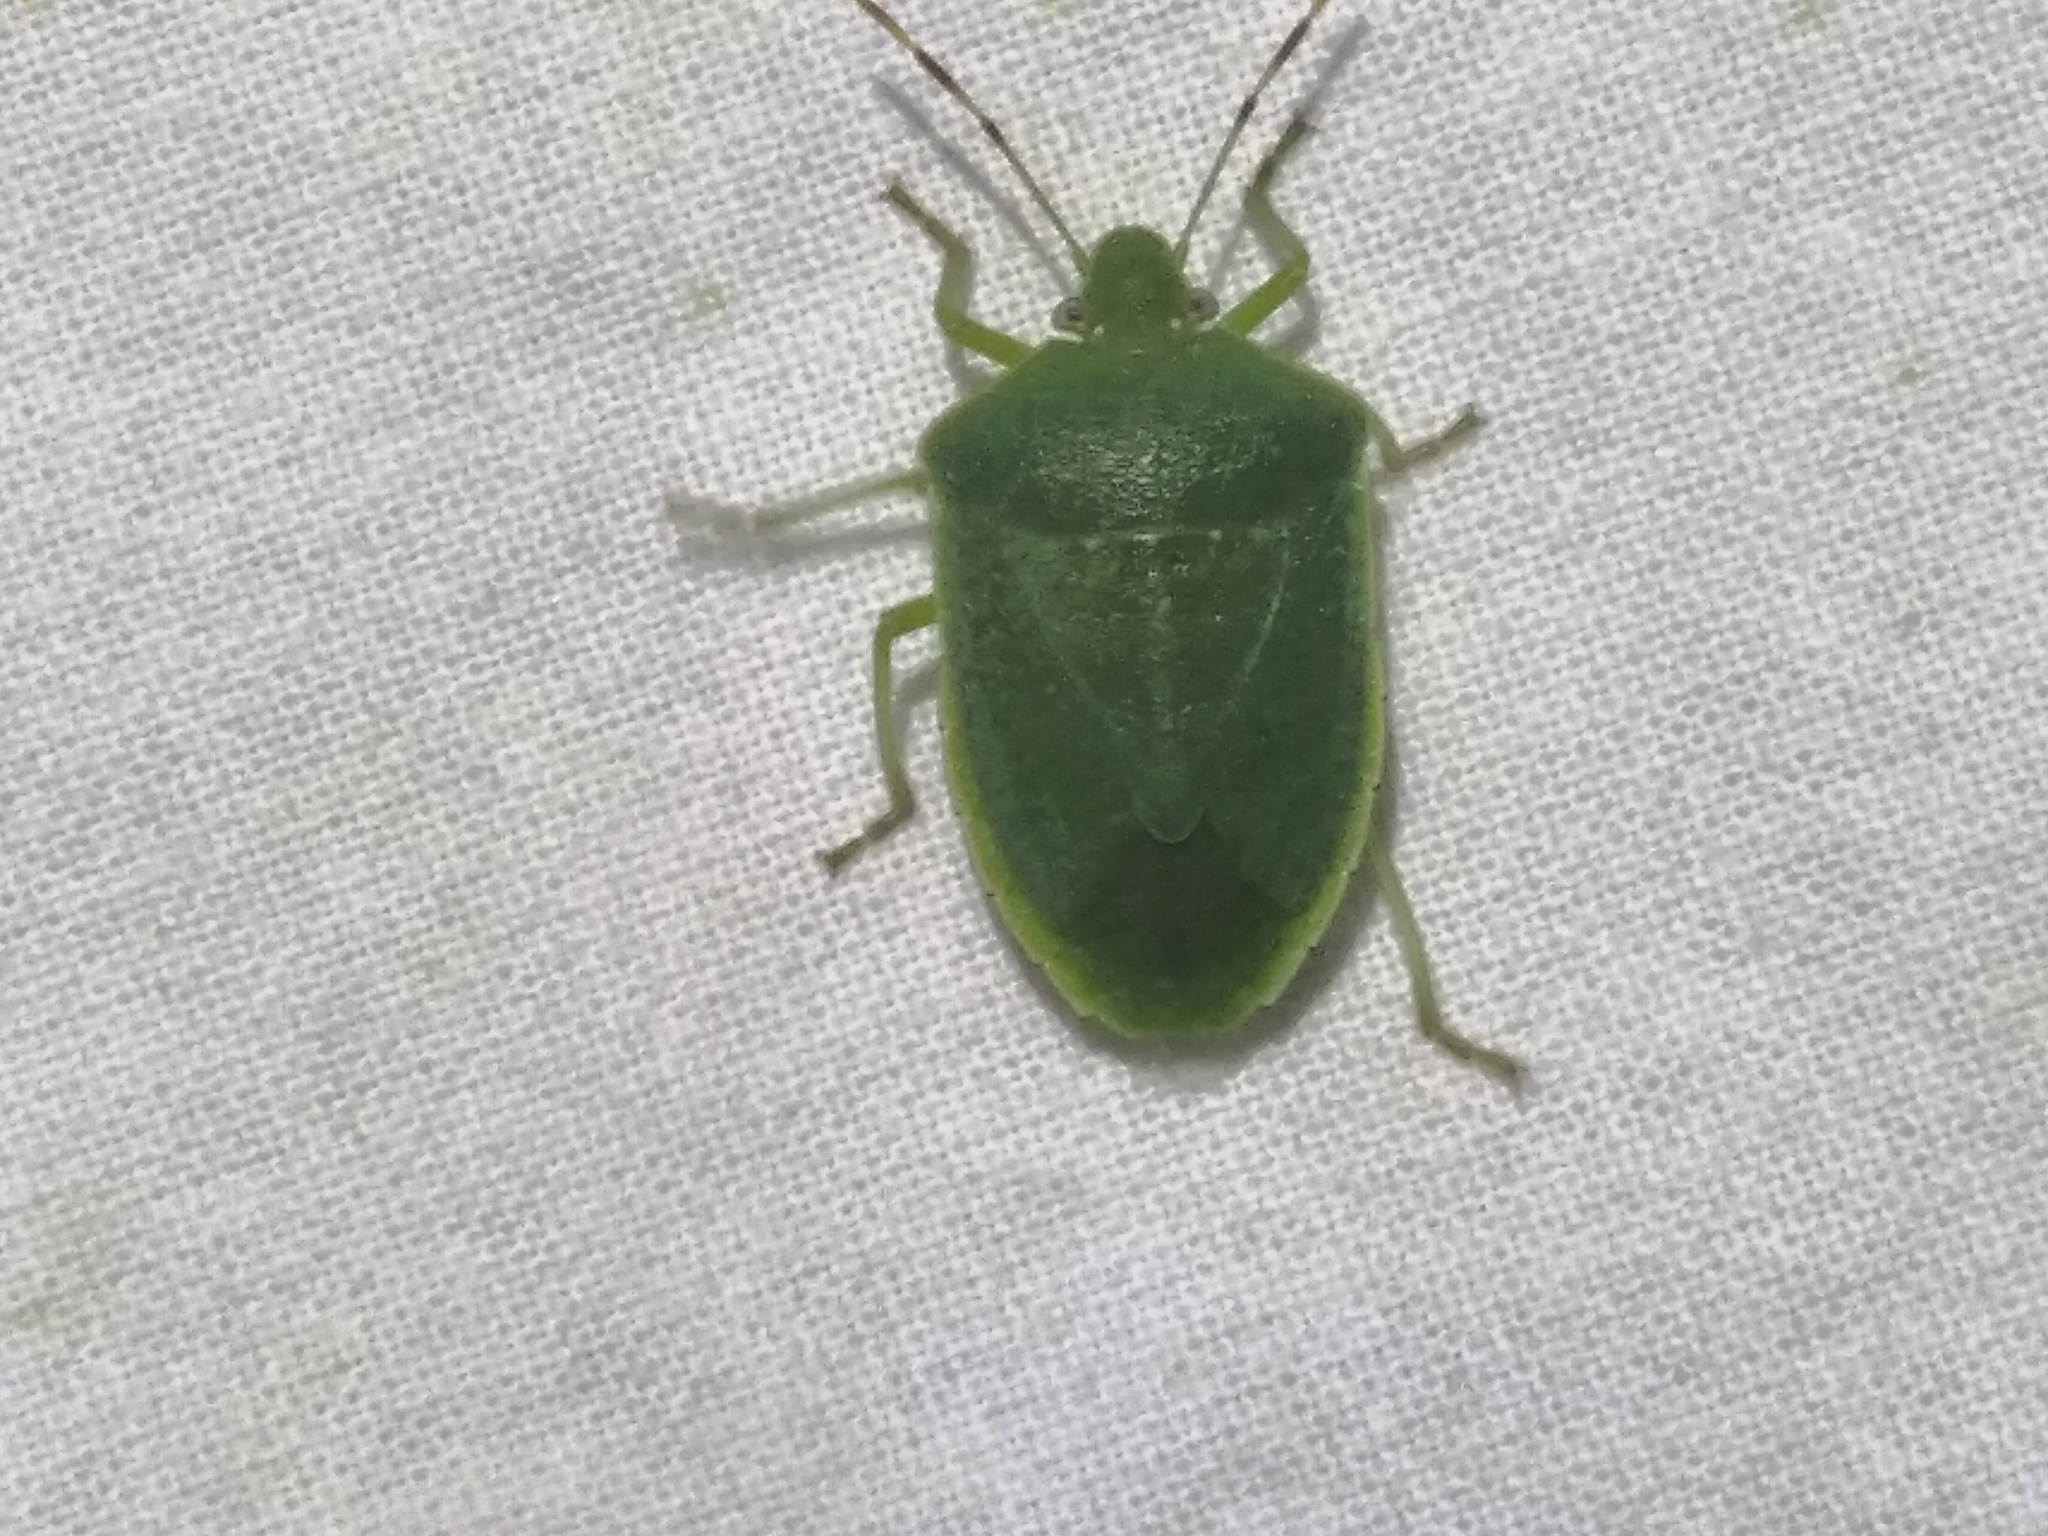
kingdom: Animalia
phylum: Arthropoda
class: Insecta
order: Hemiptera
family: Pentatomidae
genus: Nezara
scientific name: Nezara viridula
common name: Southern green stink bug
